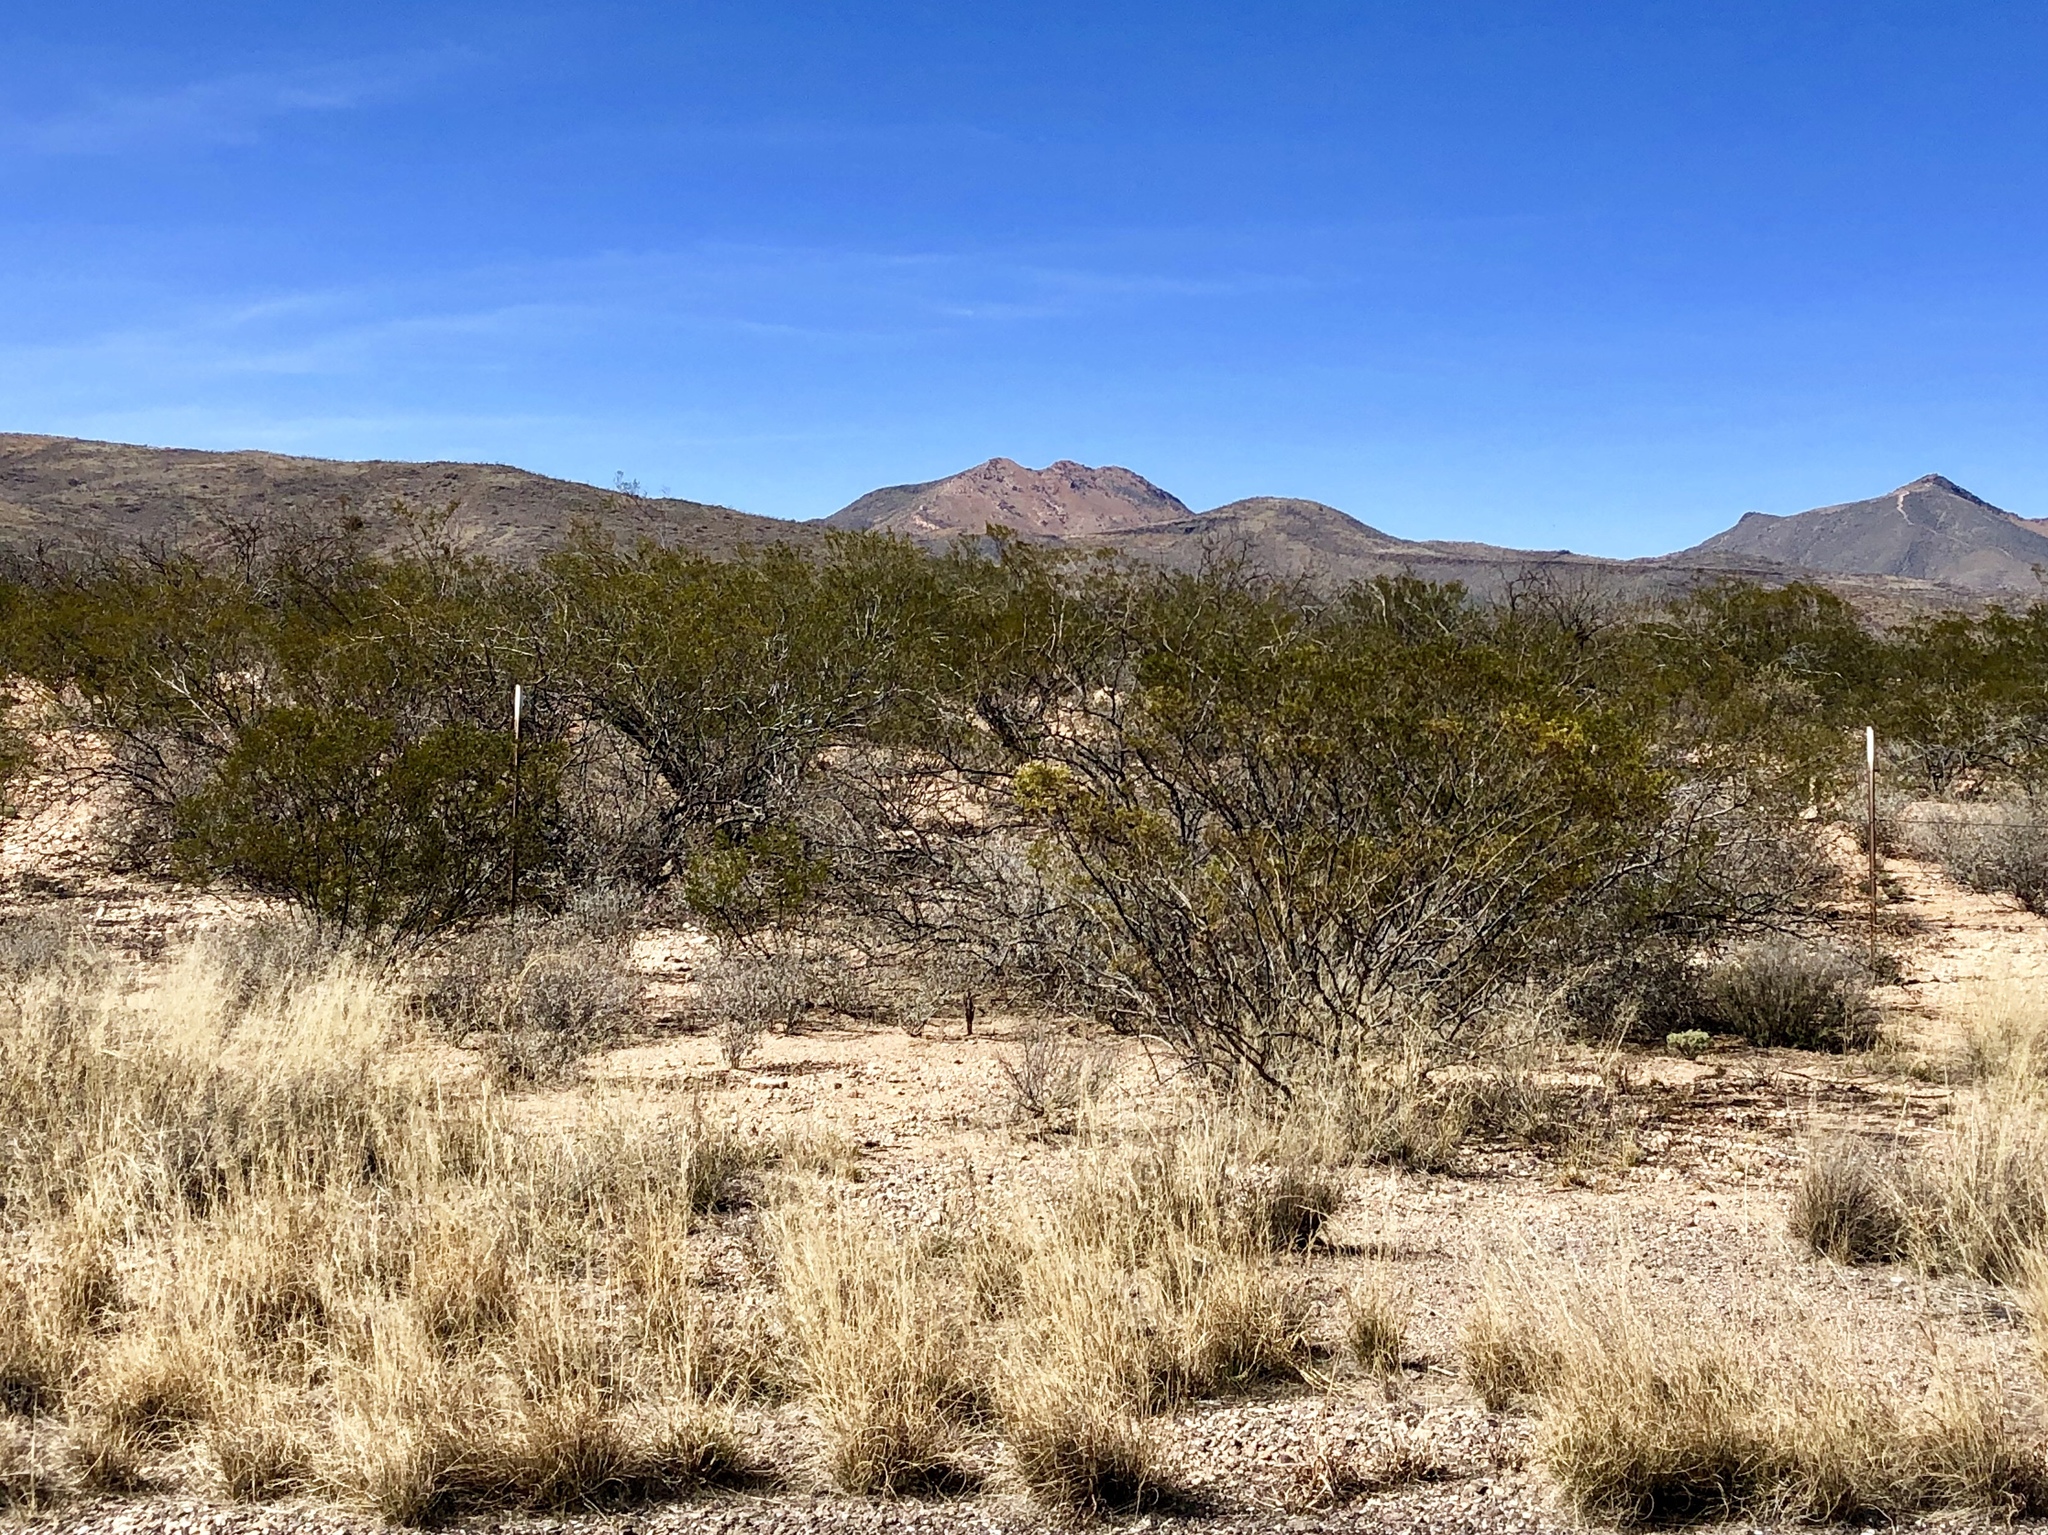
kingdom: Plantae
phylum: Tracheophyta
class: Magnoliopsida
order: Zygophyllales
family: Zygophyllaceae
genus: Larrea
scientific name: Larrea tridentata
